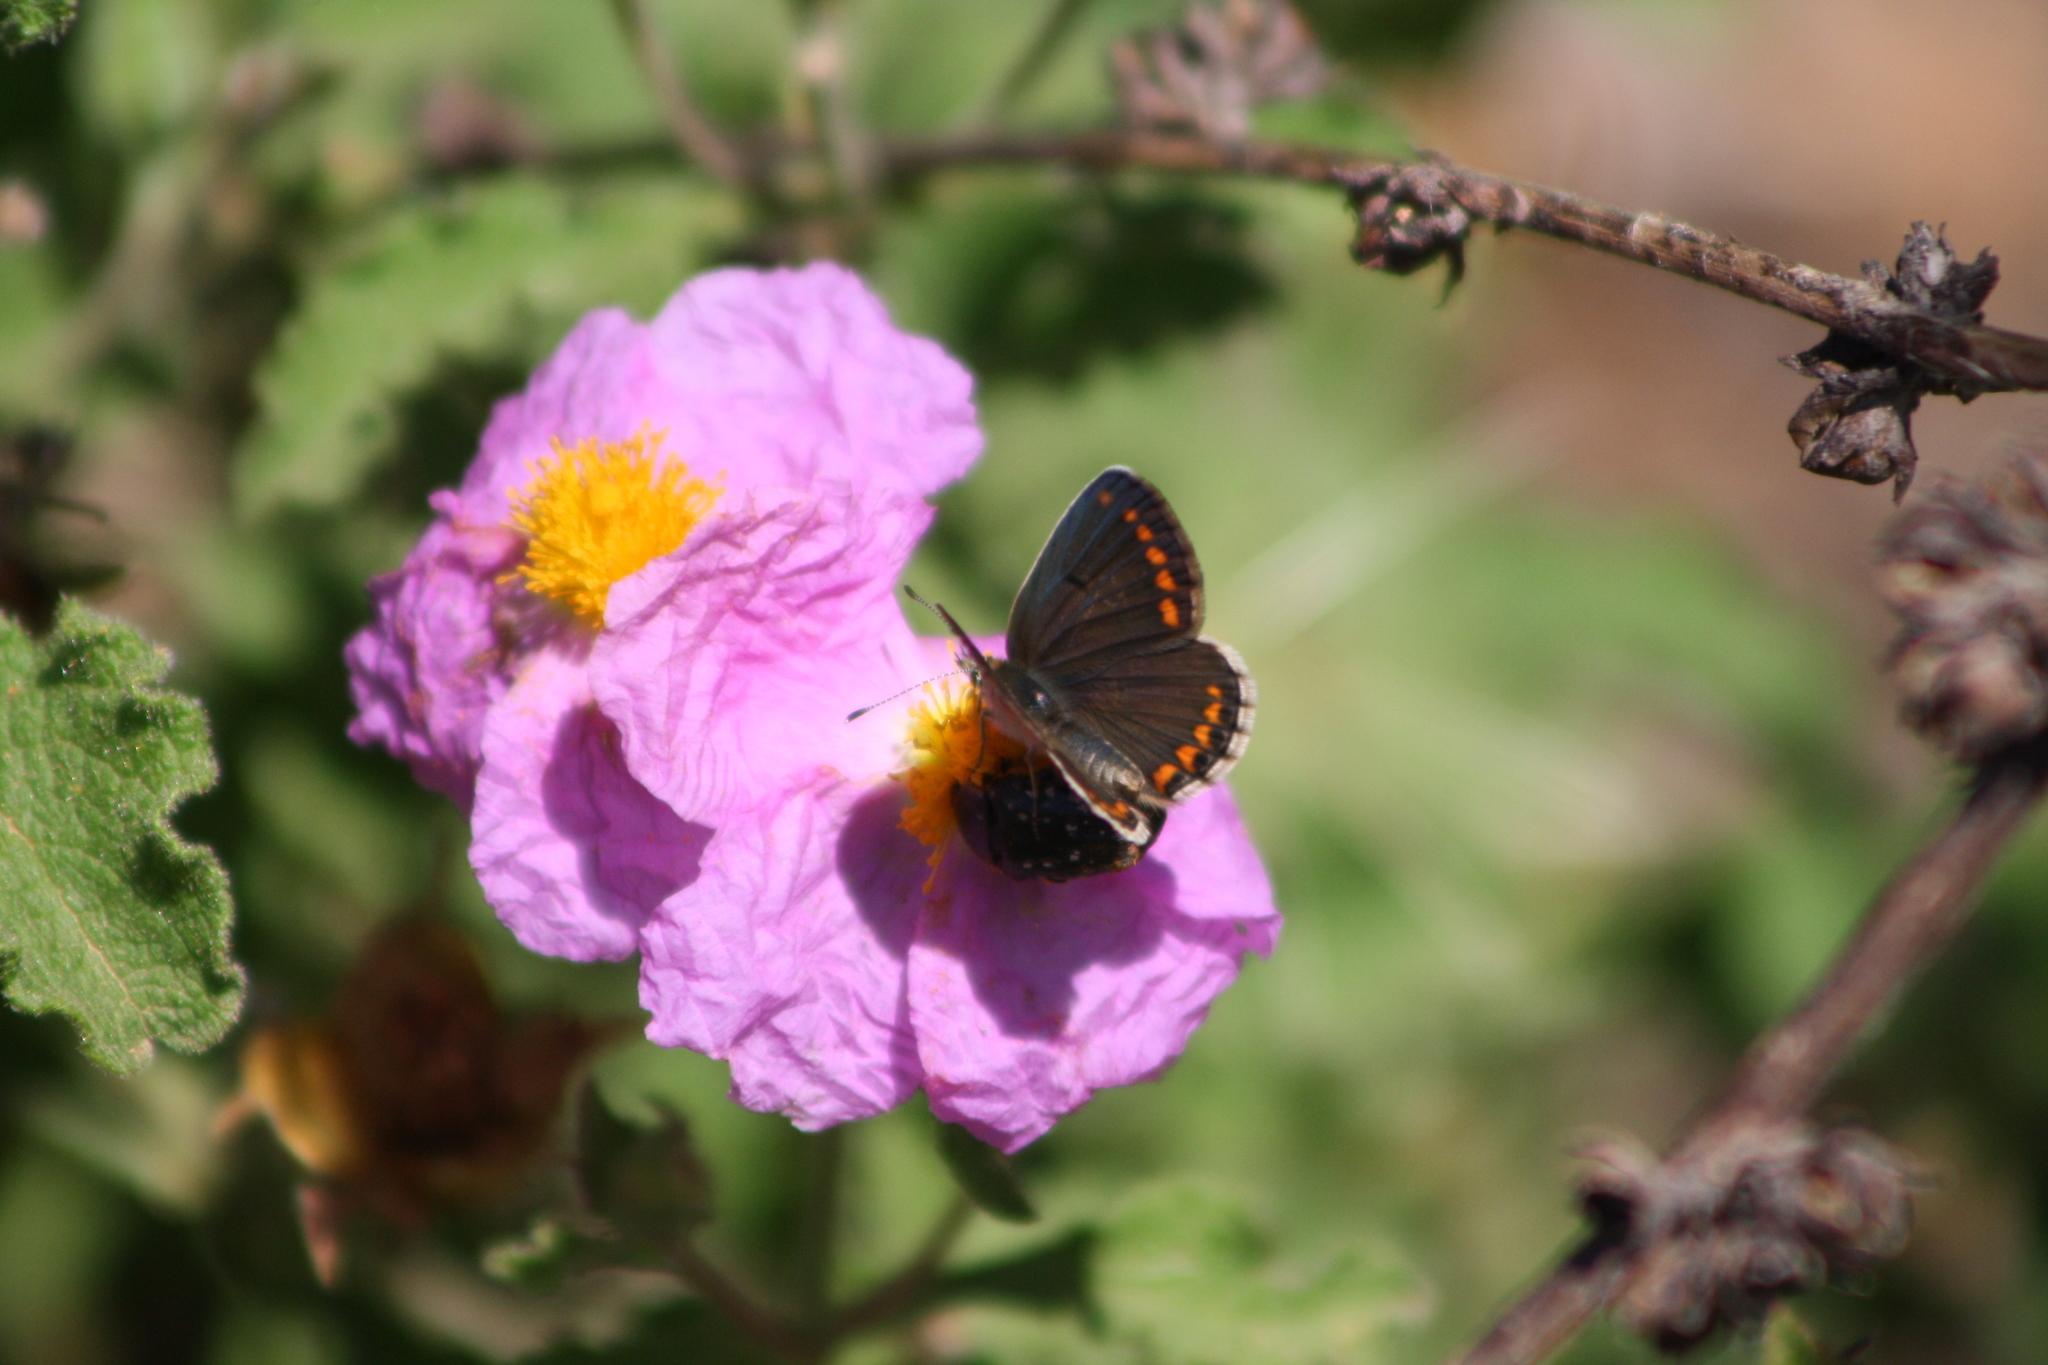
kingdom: Animalia
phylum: Arthropoda
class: Insecta
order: Lepidoptera
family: Lycaenidae
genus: Aricia
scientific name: Aricia agestis
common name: Brown argus
